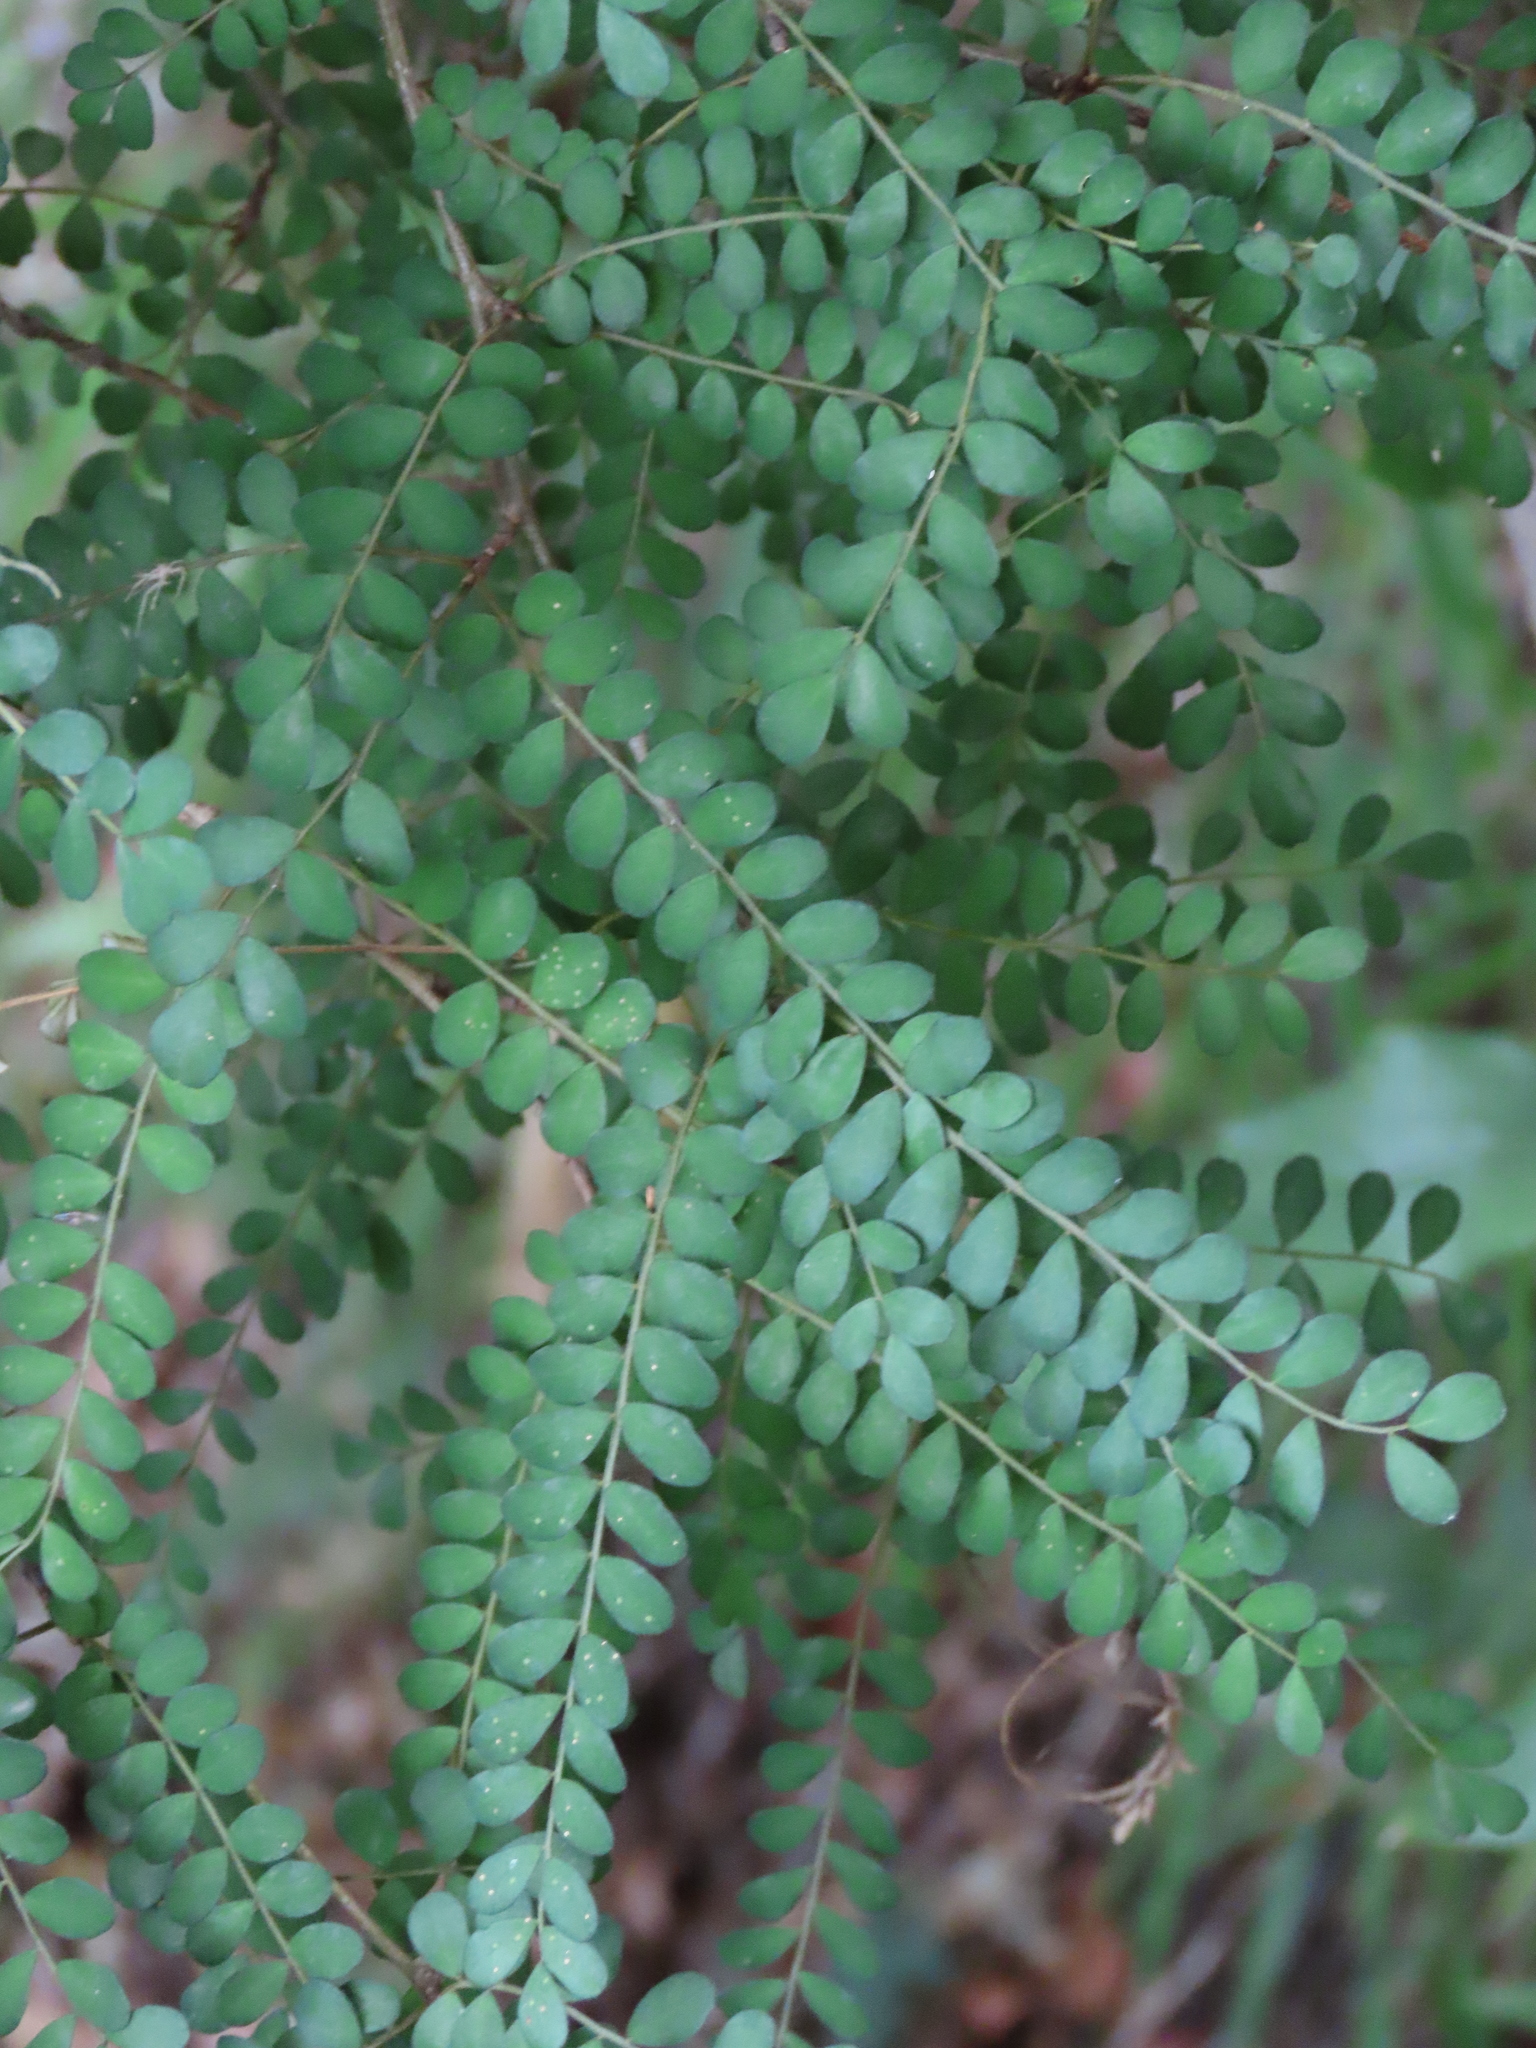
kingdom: Plantae
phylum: Tracheophyta
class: Magnoliopsida
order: Fabales
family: Fabaceae
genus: Sophora
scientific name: Sophora cassioides
